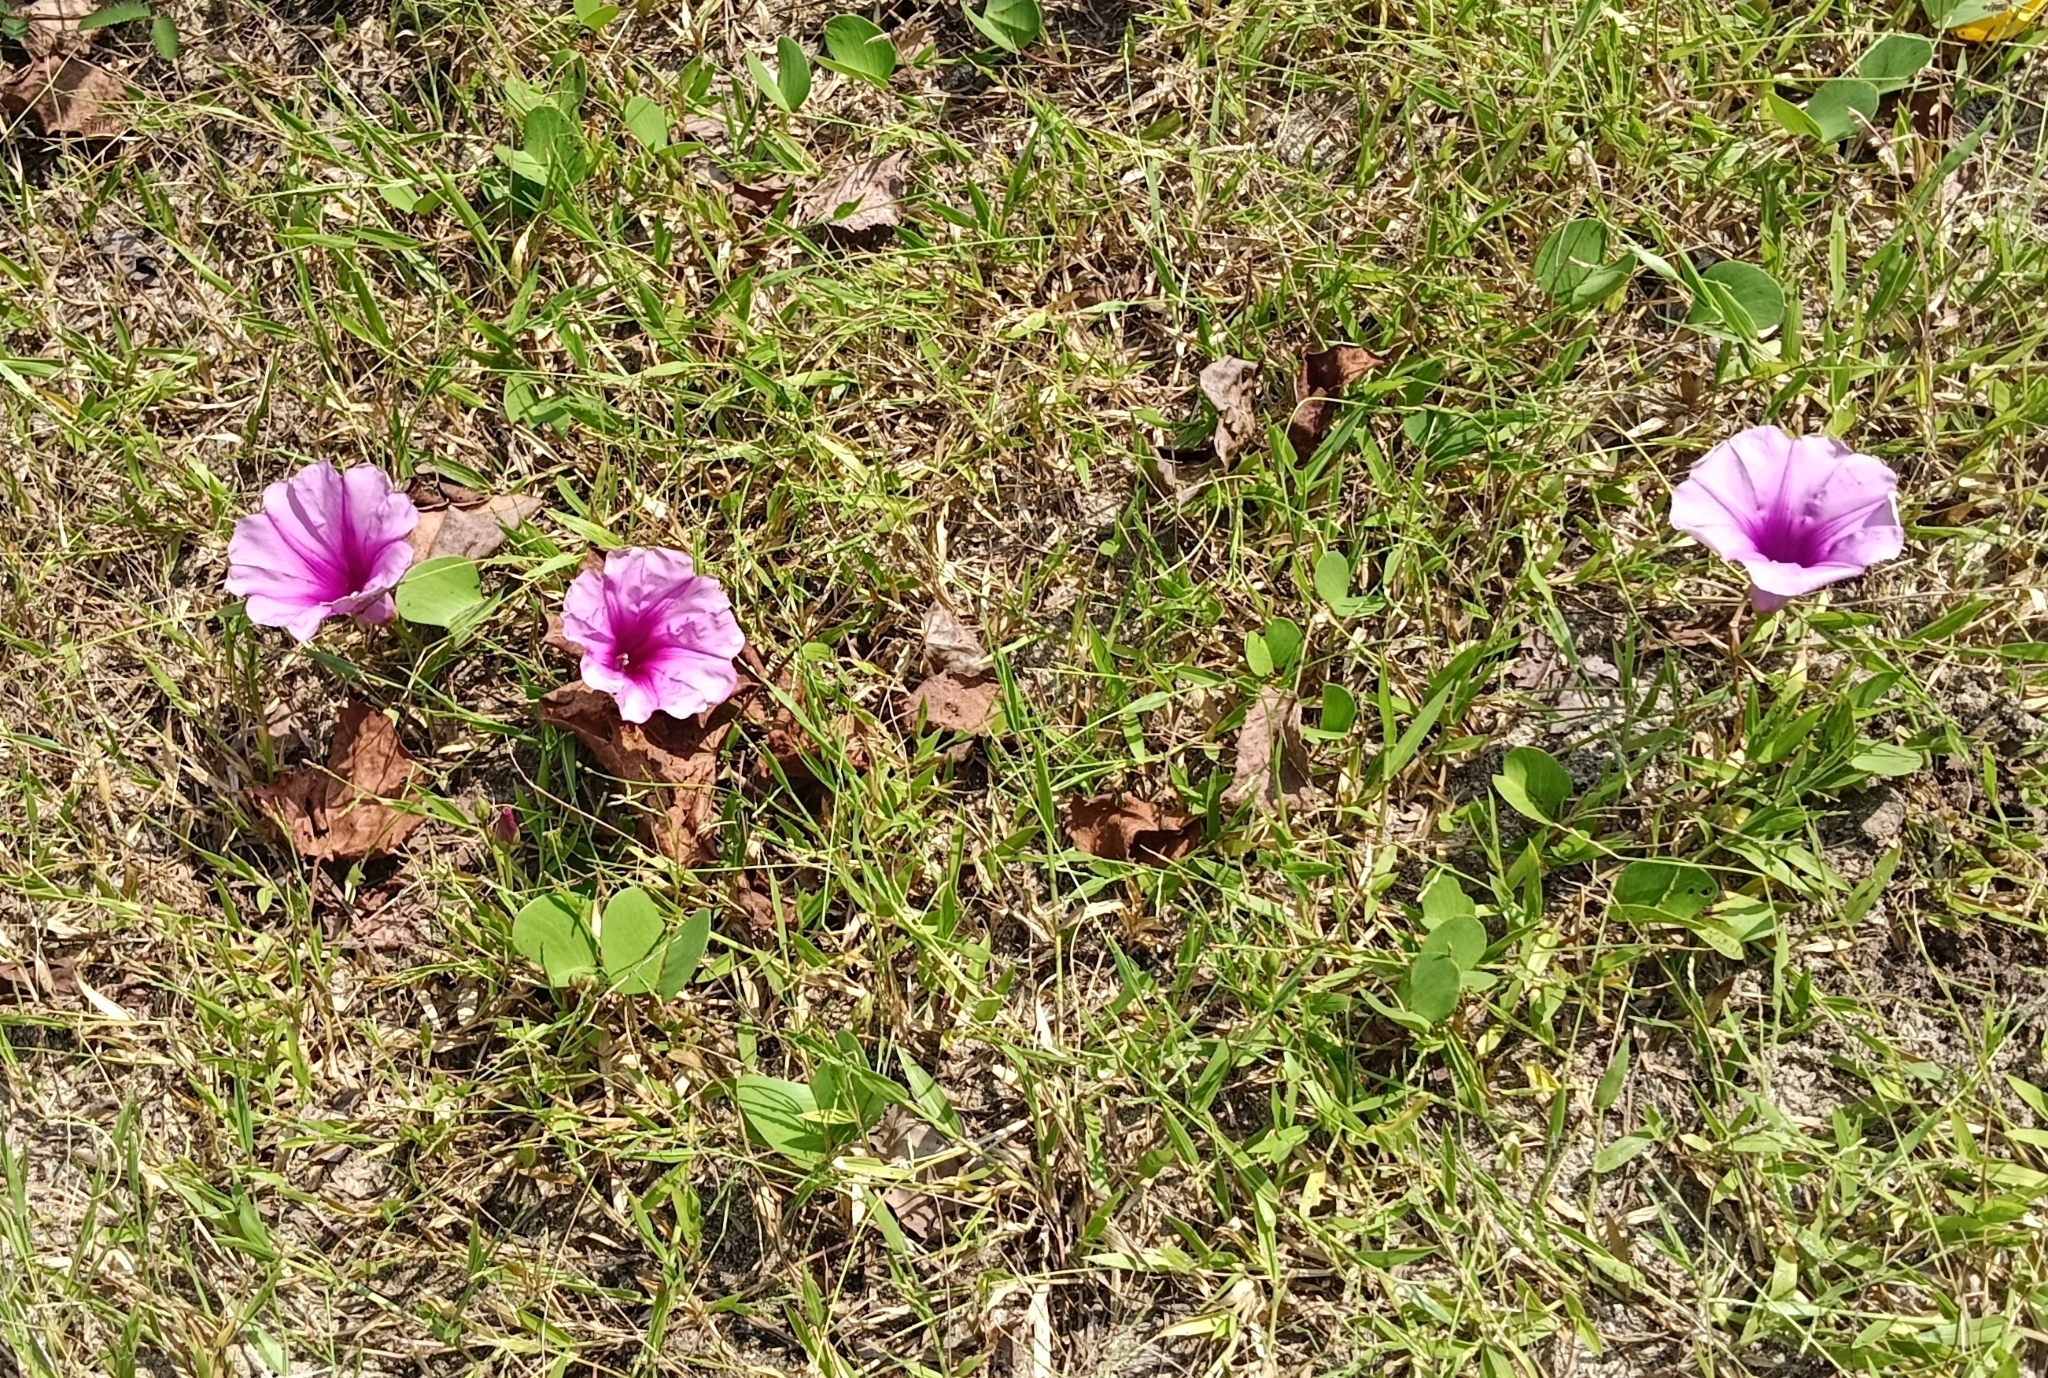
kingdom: Plantae
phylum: Tracheophyta
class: Magnoliopsida
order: Solanales
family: Convolvulaceae
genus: Ipomoea
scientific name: Ipomoea pes-caprae
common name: Beach morning glory
